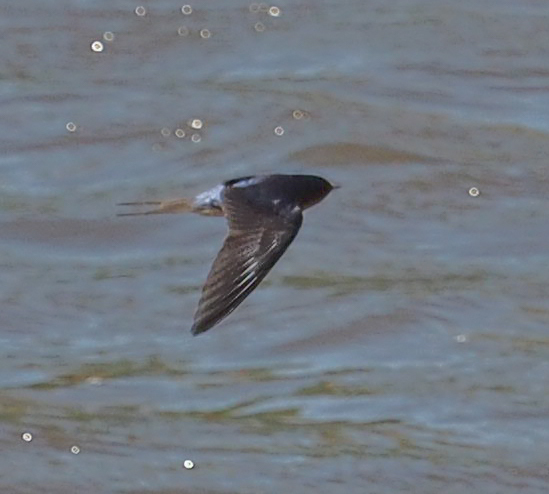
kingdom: Animalia
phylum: Chordata
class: Aves
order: Passeriformes
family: Hirundinidae
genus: Hirundo
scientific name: Hirundo rustica
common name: Barn swallow
